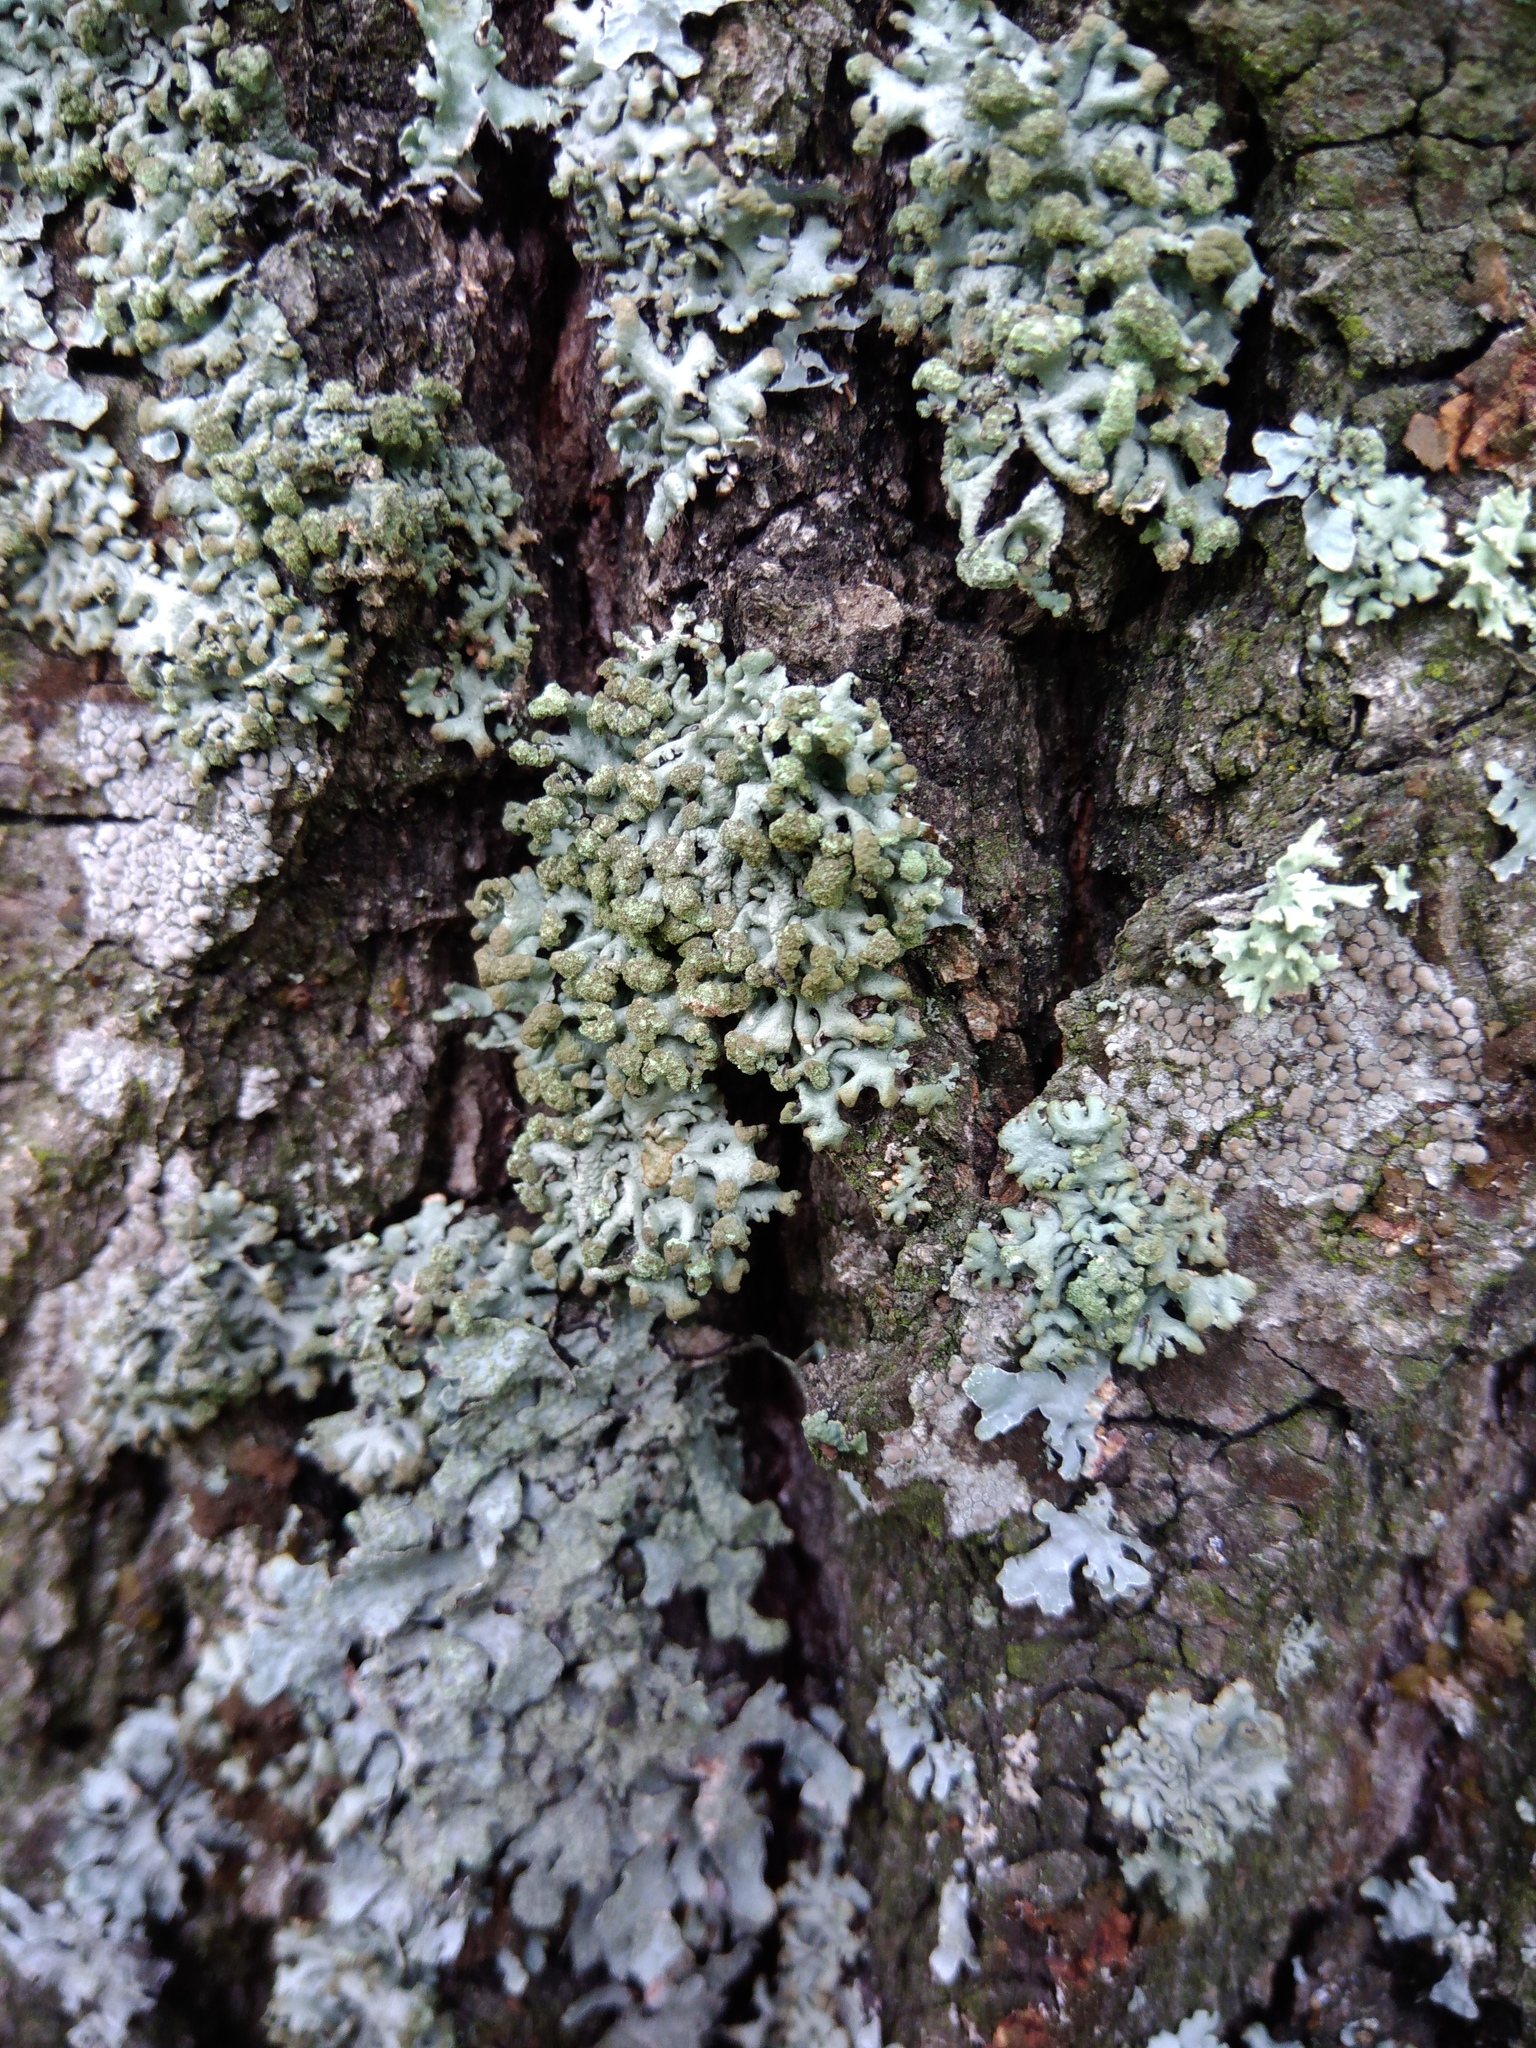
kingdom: Fungi
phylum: Ascomycota
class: Lecanoromycetes
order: Lecanorales
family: Parmeliaceae
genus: Hypogymnia
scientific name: Hypogymnia tubulosa
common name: Powder-headed tube lichen
